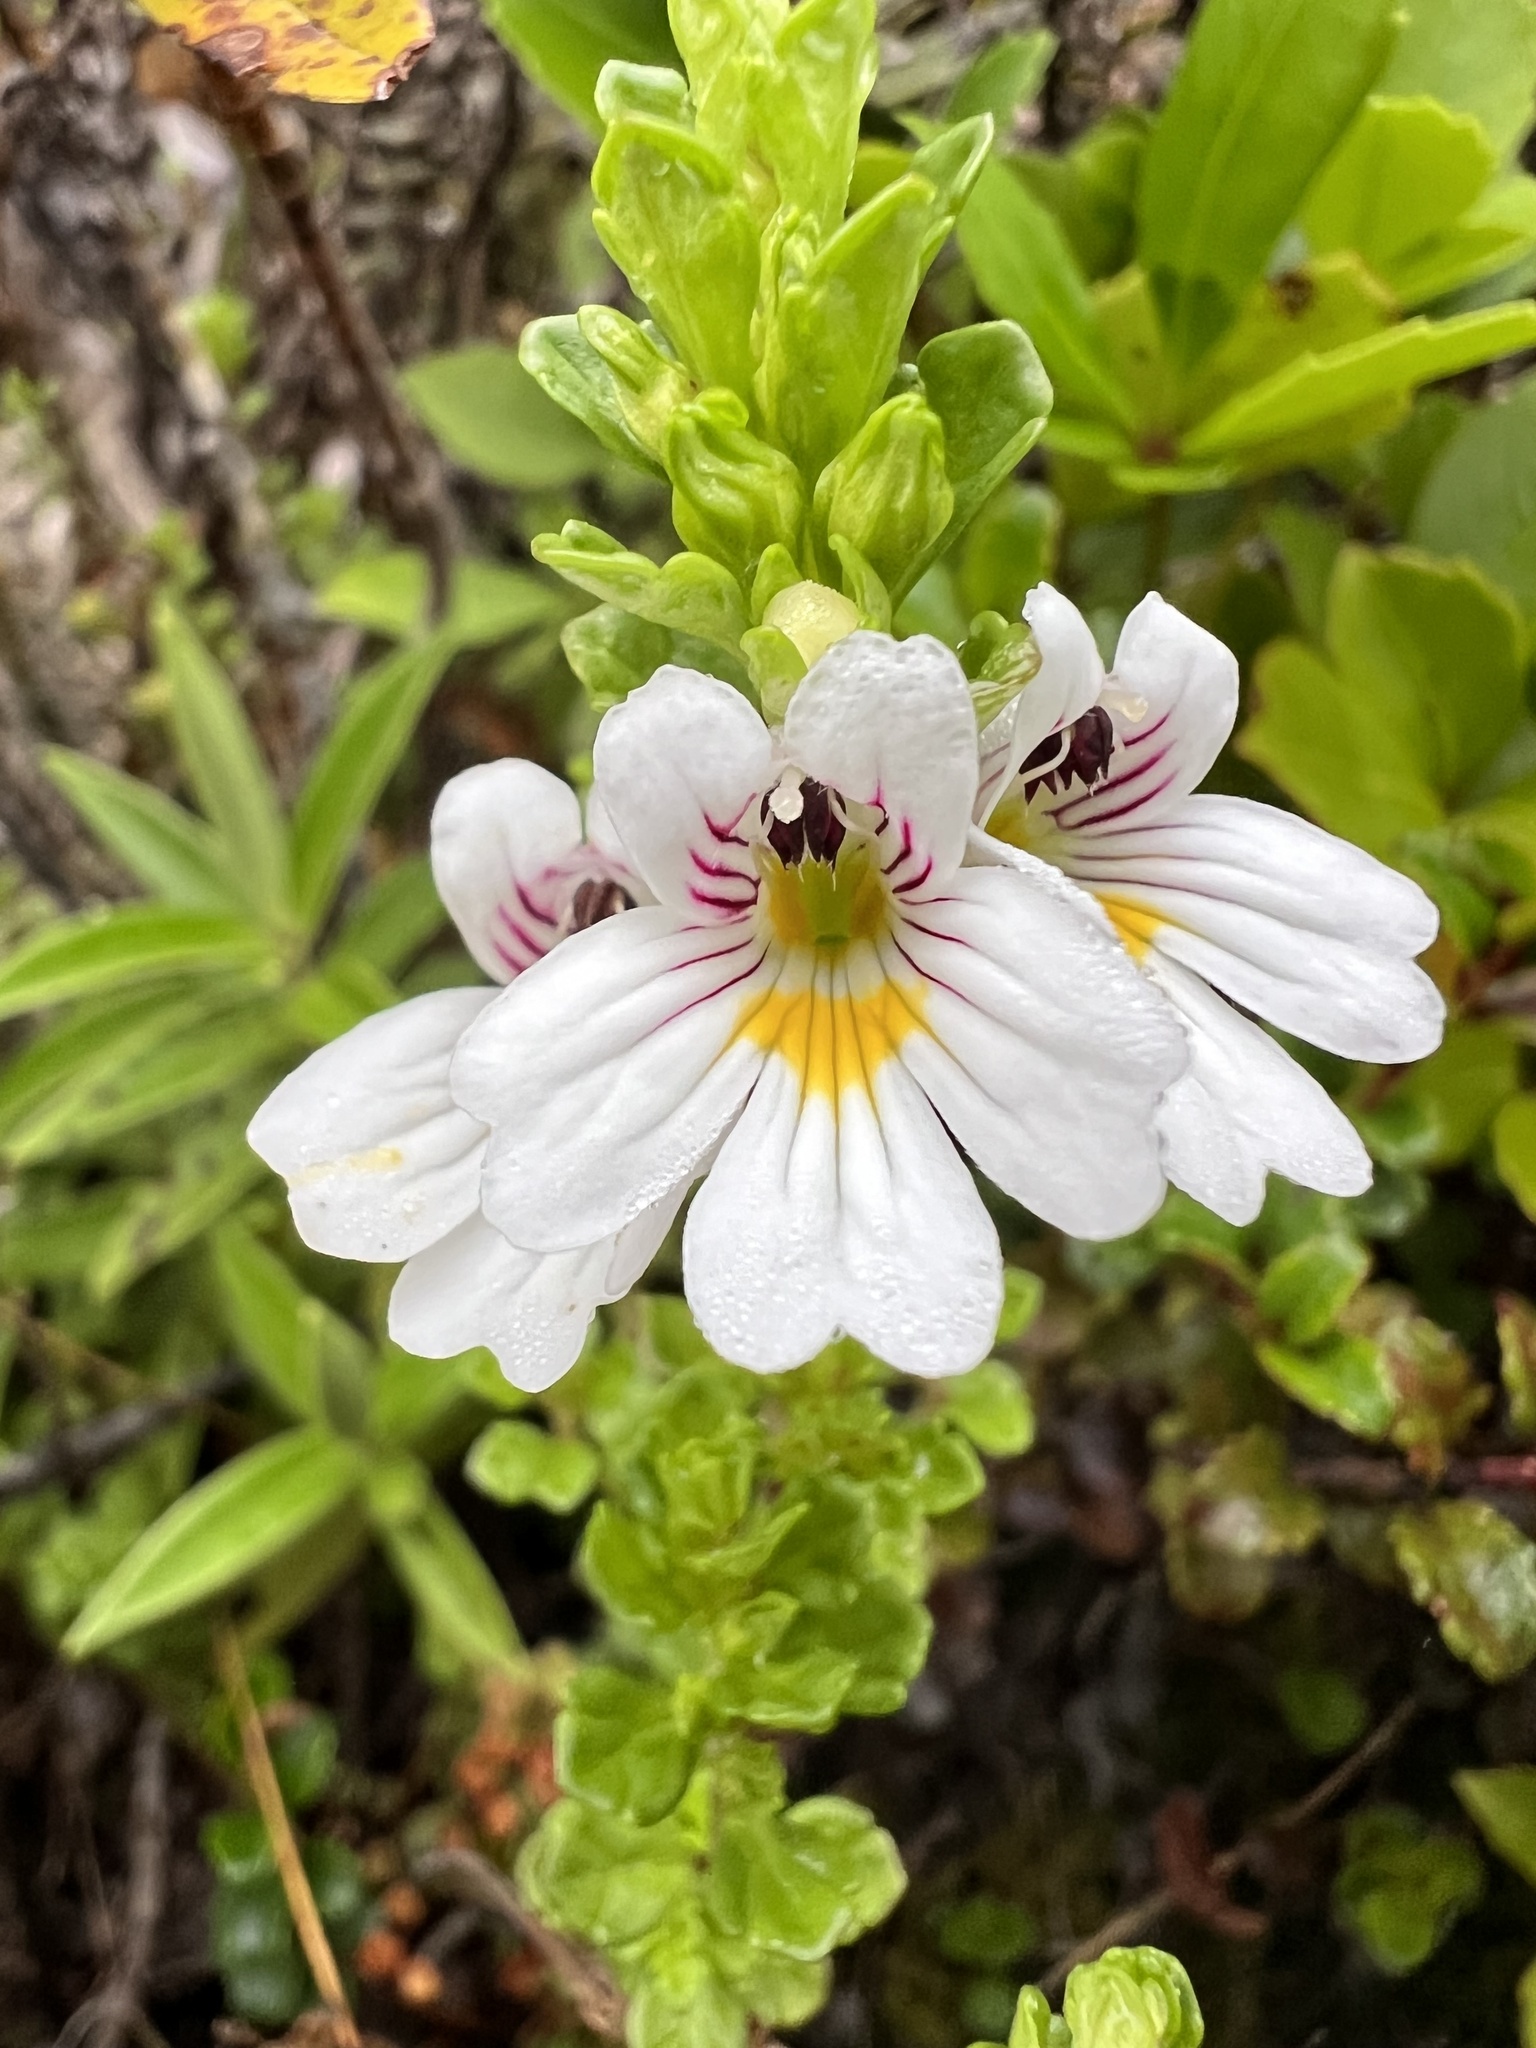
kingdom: Plantae
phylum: Tracheophyta
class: Magnoliopsida
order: Lamiales
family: Orobanchaceae
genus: Euphrasia
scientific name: Euphrasia cuneata
